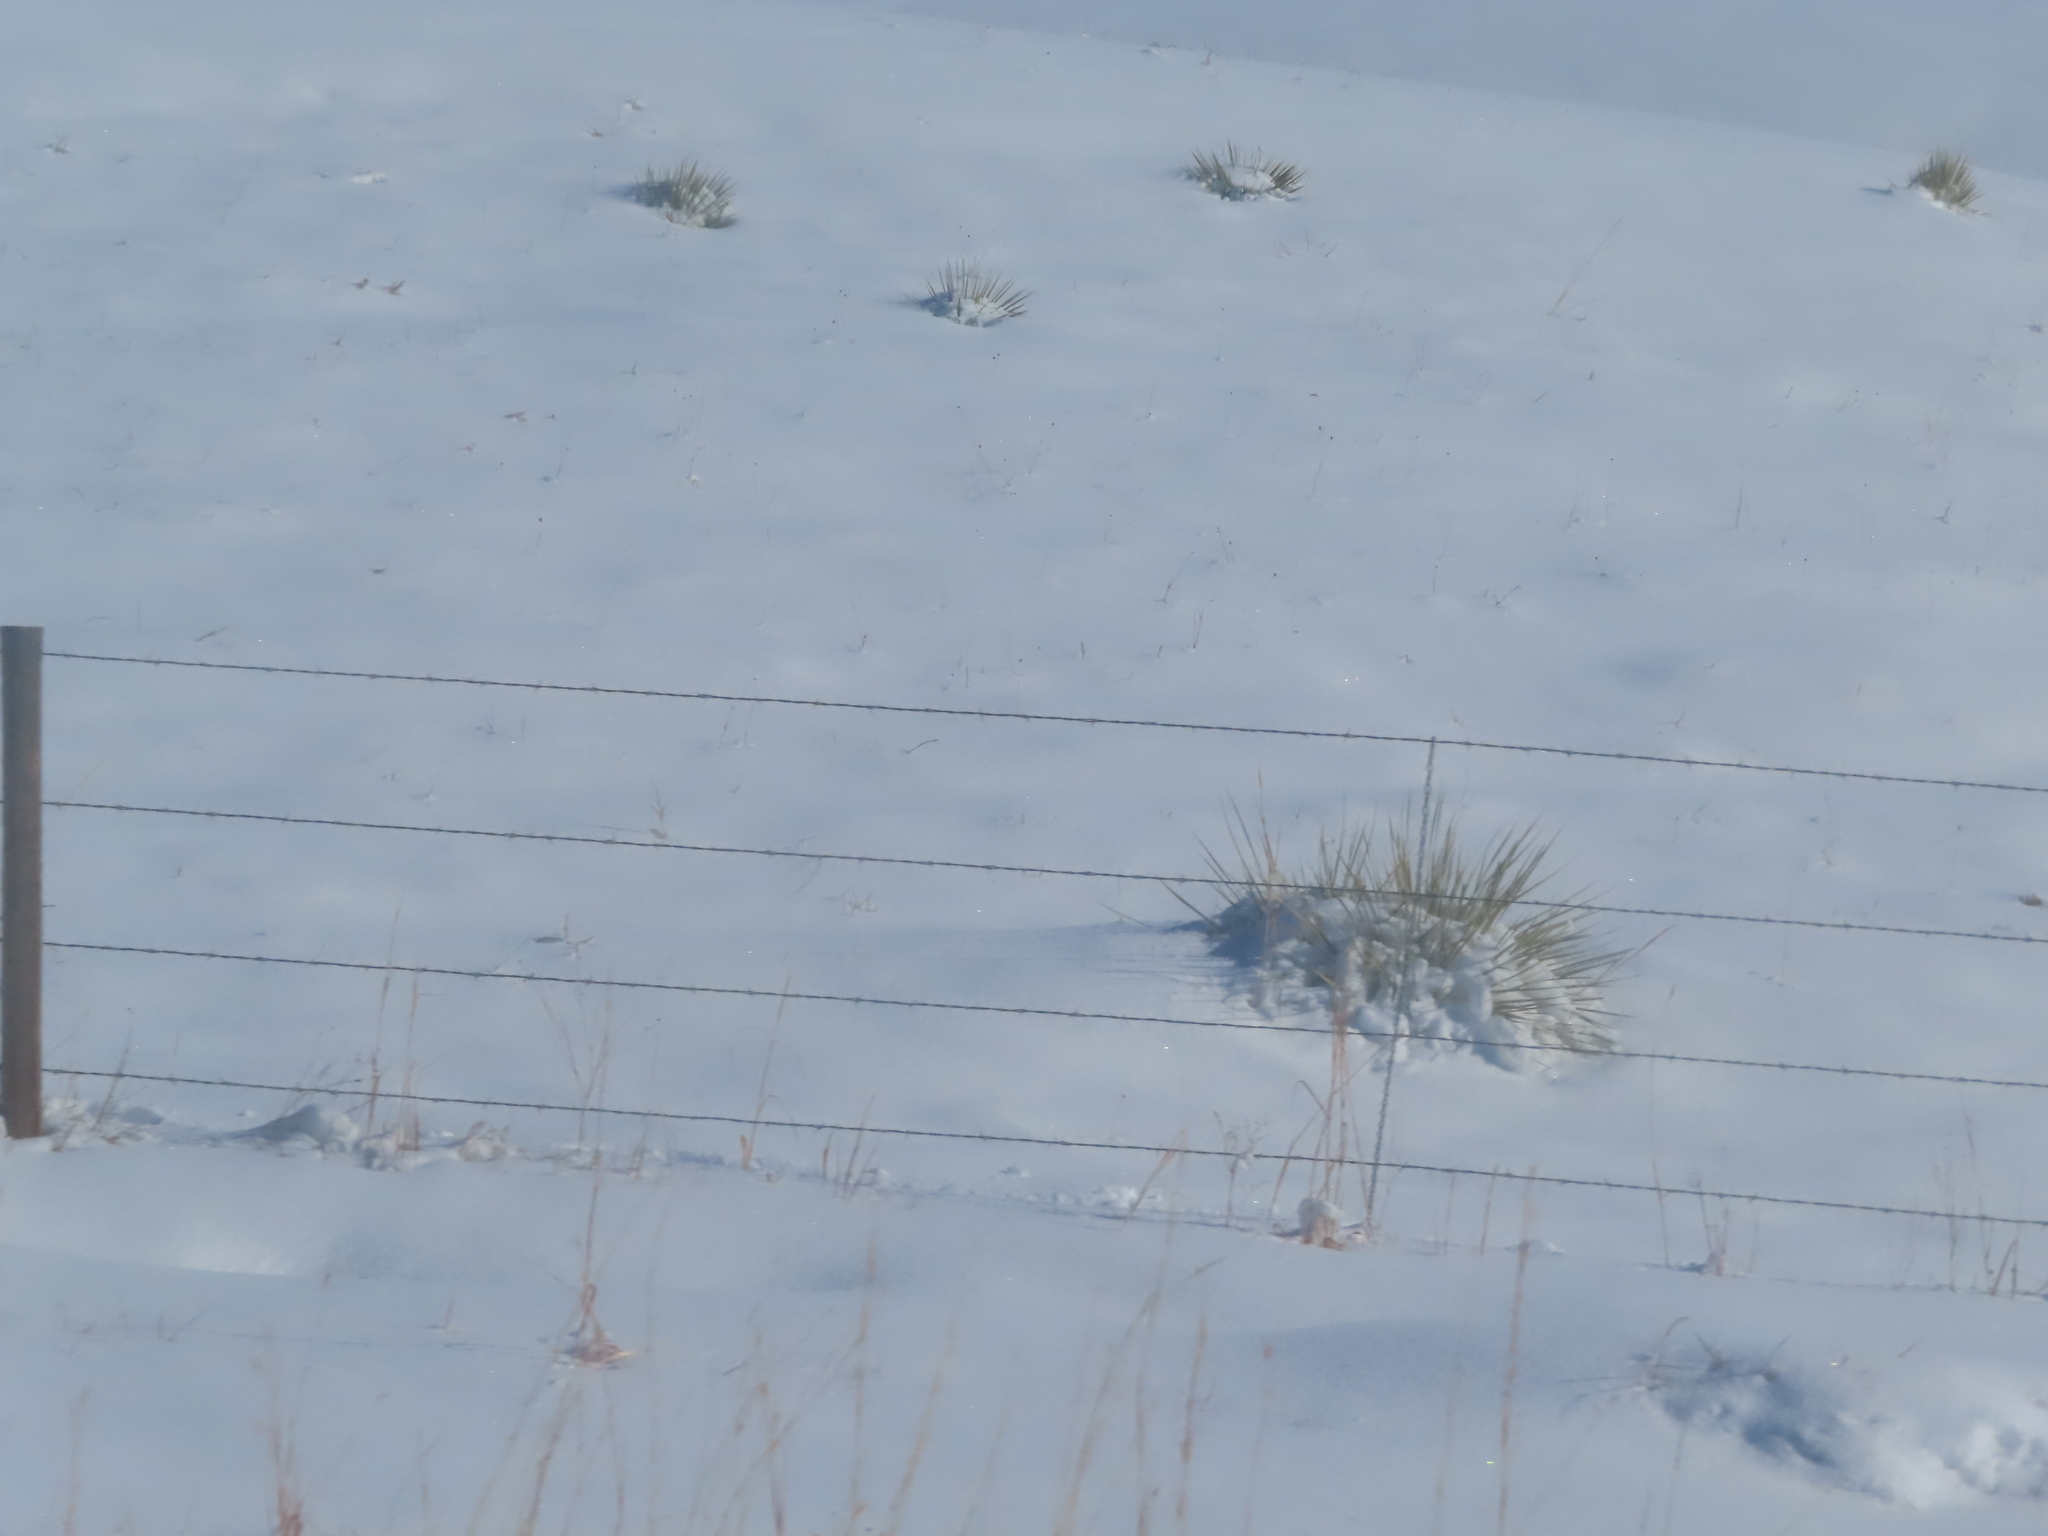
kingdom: Plantae
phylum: Tracheophyta
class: Liliopsida
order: Asparagales
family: Asparagaceae
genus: Yucca
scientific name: Yucca glauca
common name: Great plains yucca
